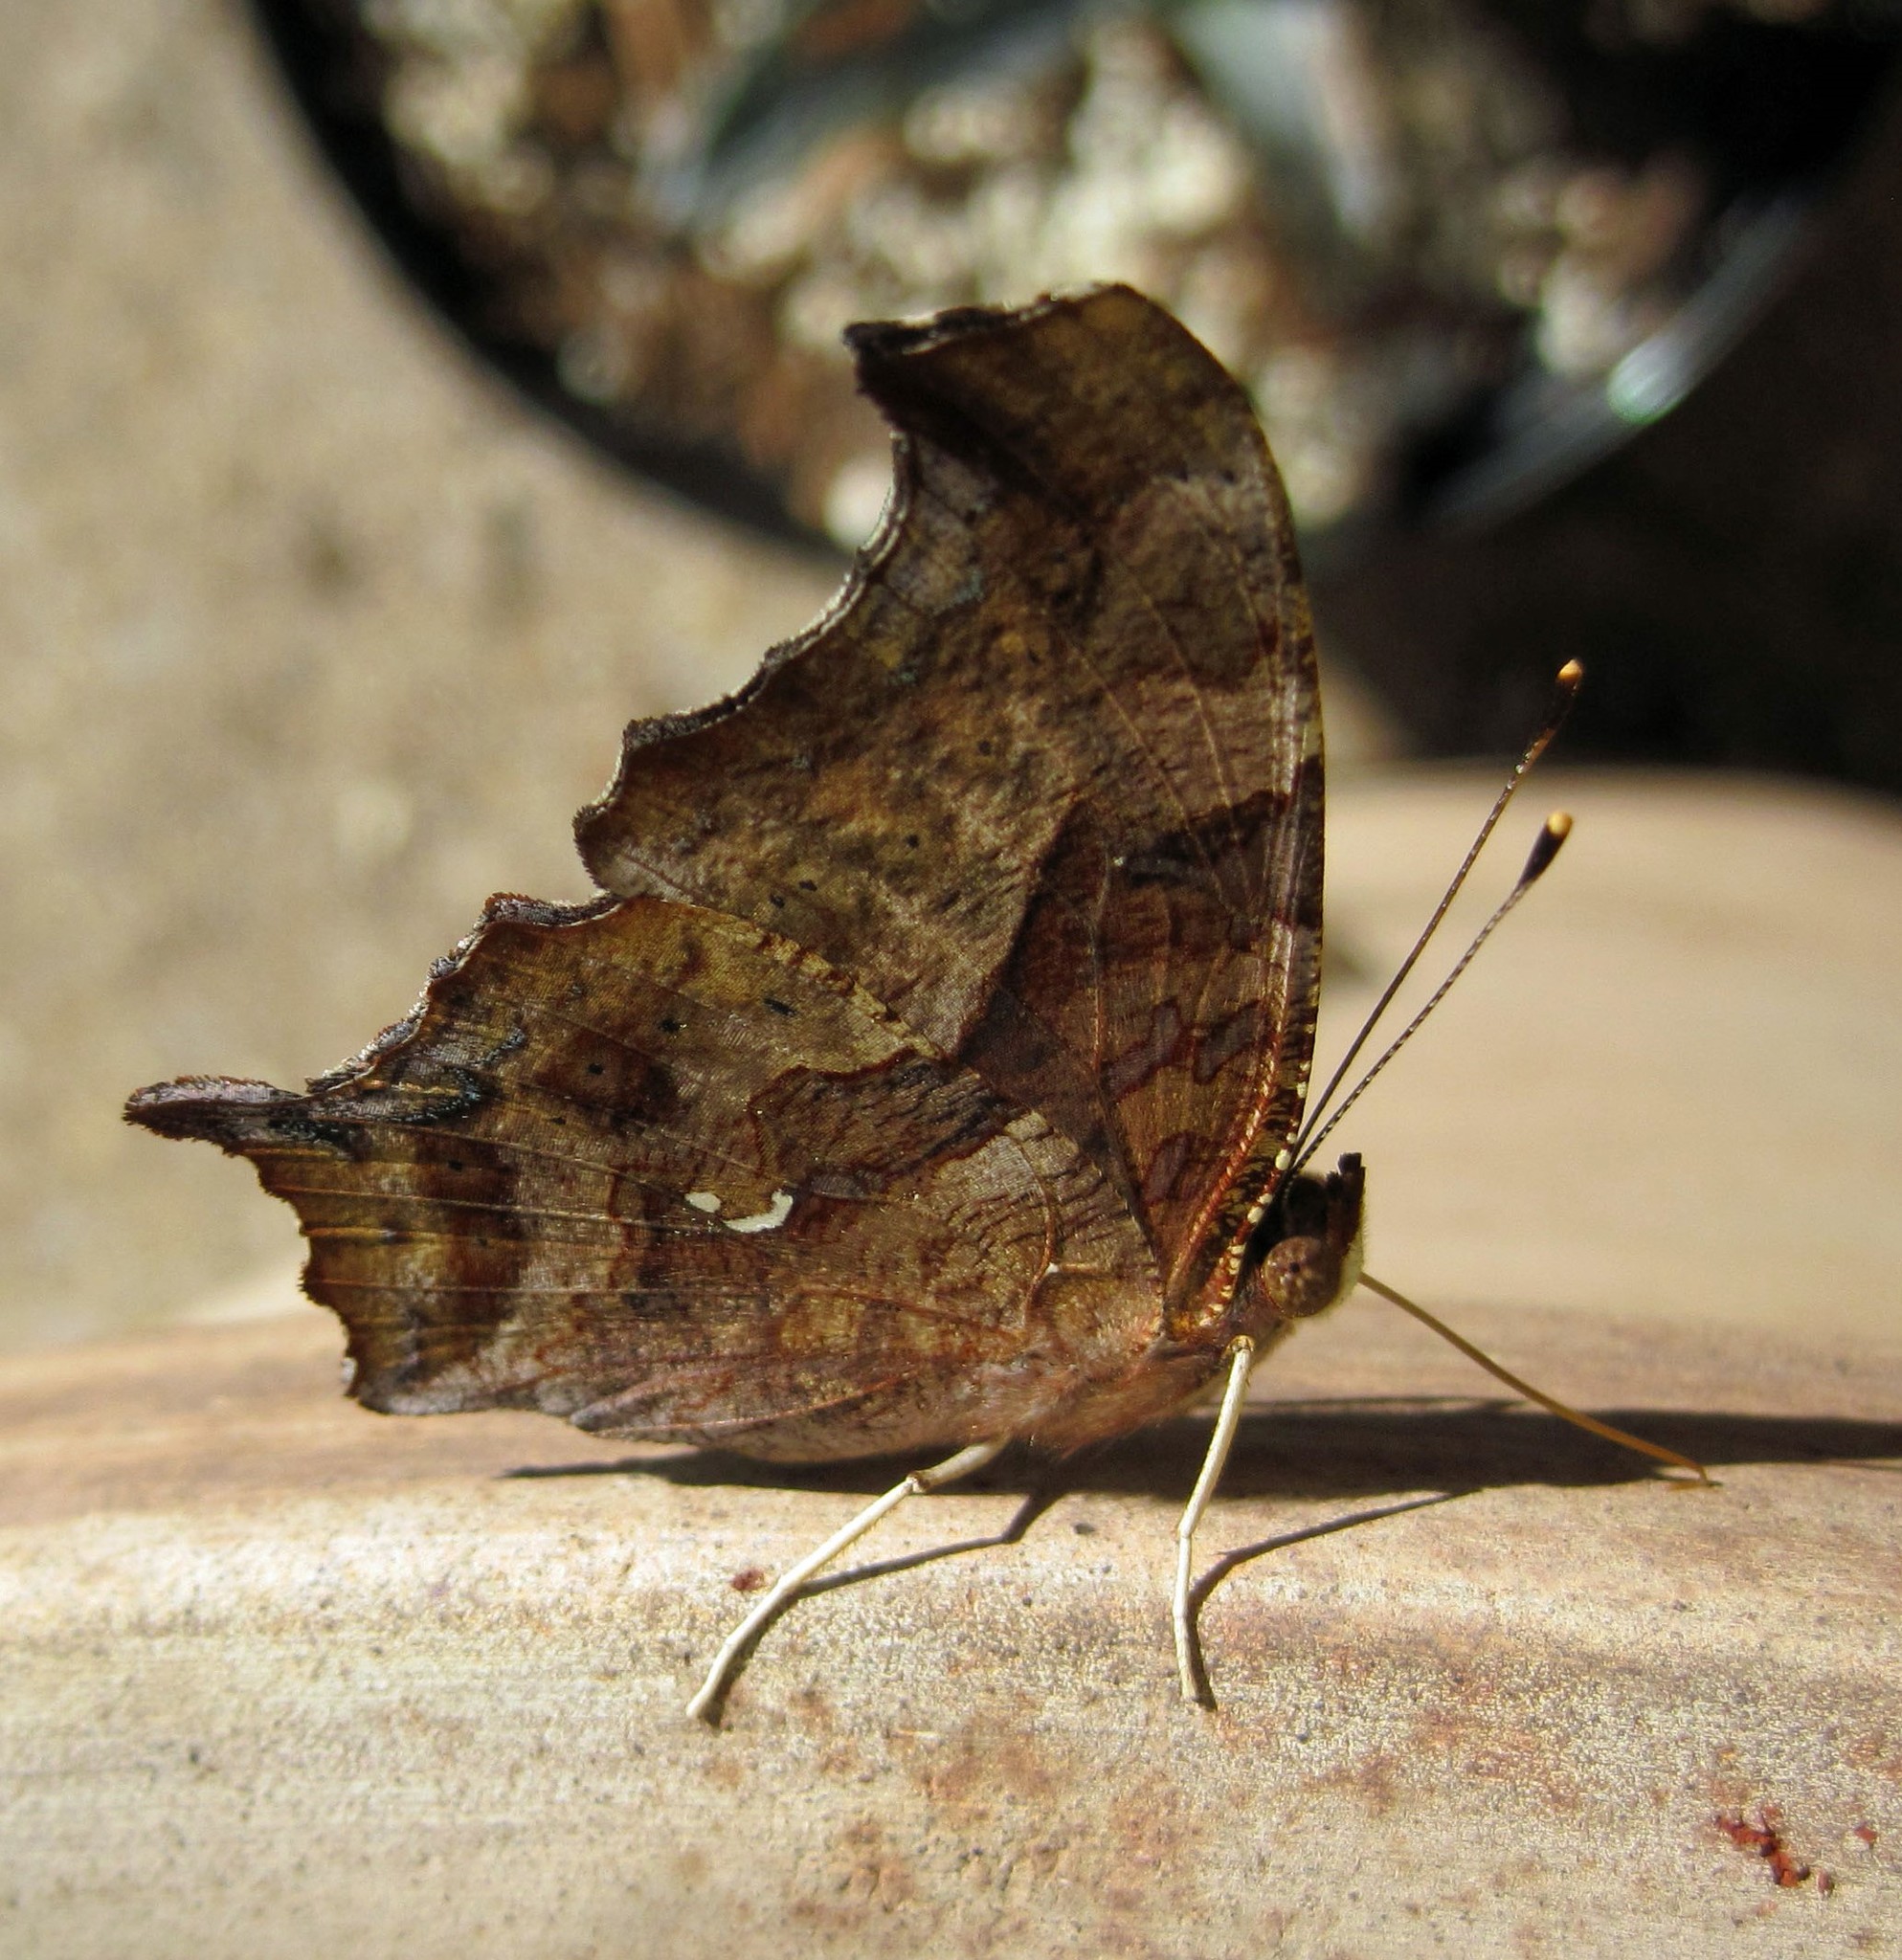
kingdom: Animalia
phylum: Arthropoda
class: Insecta
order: Lepidoptera
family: Nymphalidae
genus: Polygonia
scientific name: Polygonia interrogationis
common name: Question mark
